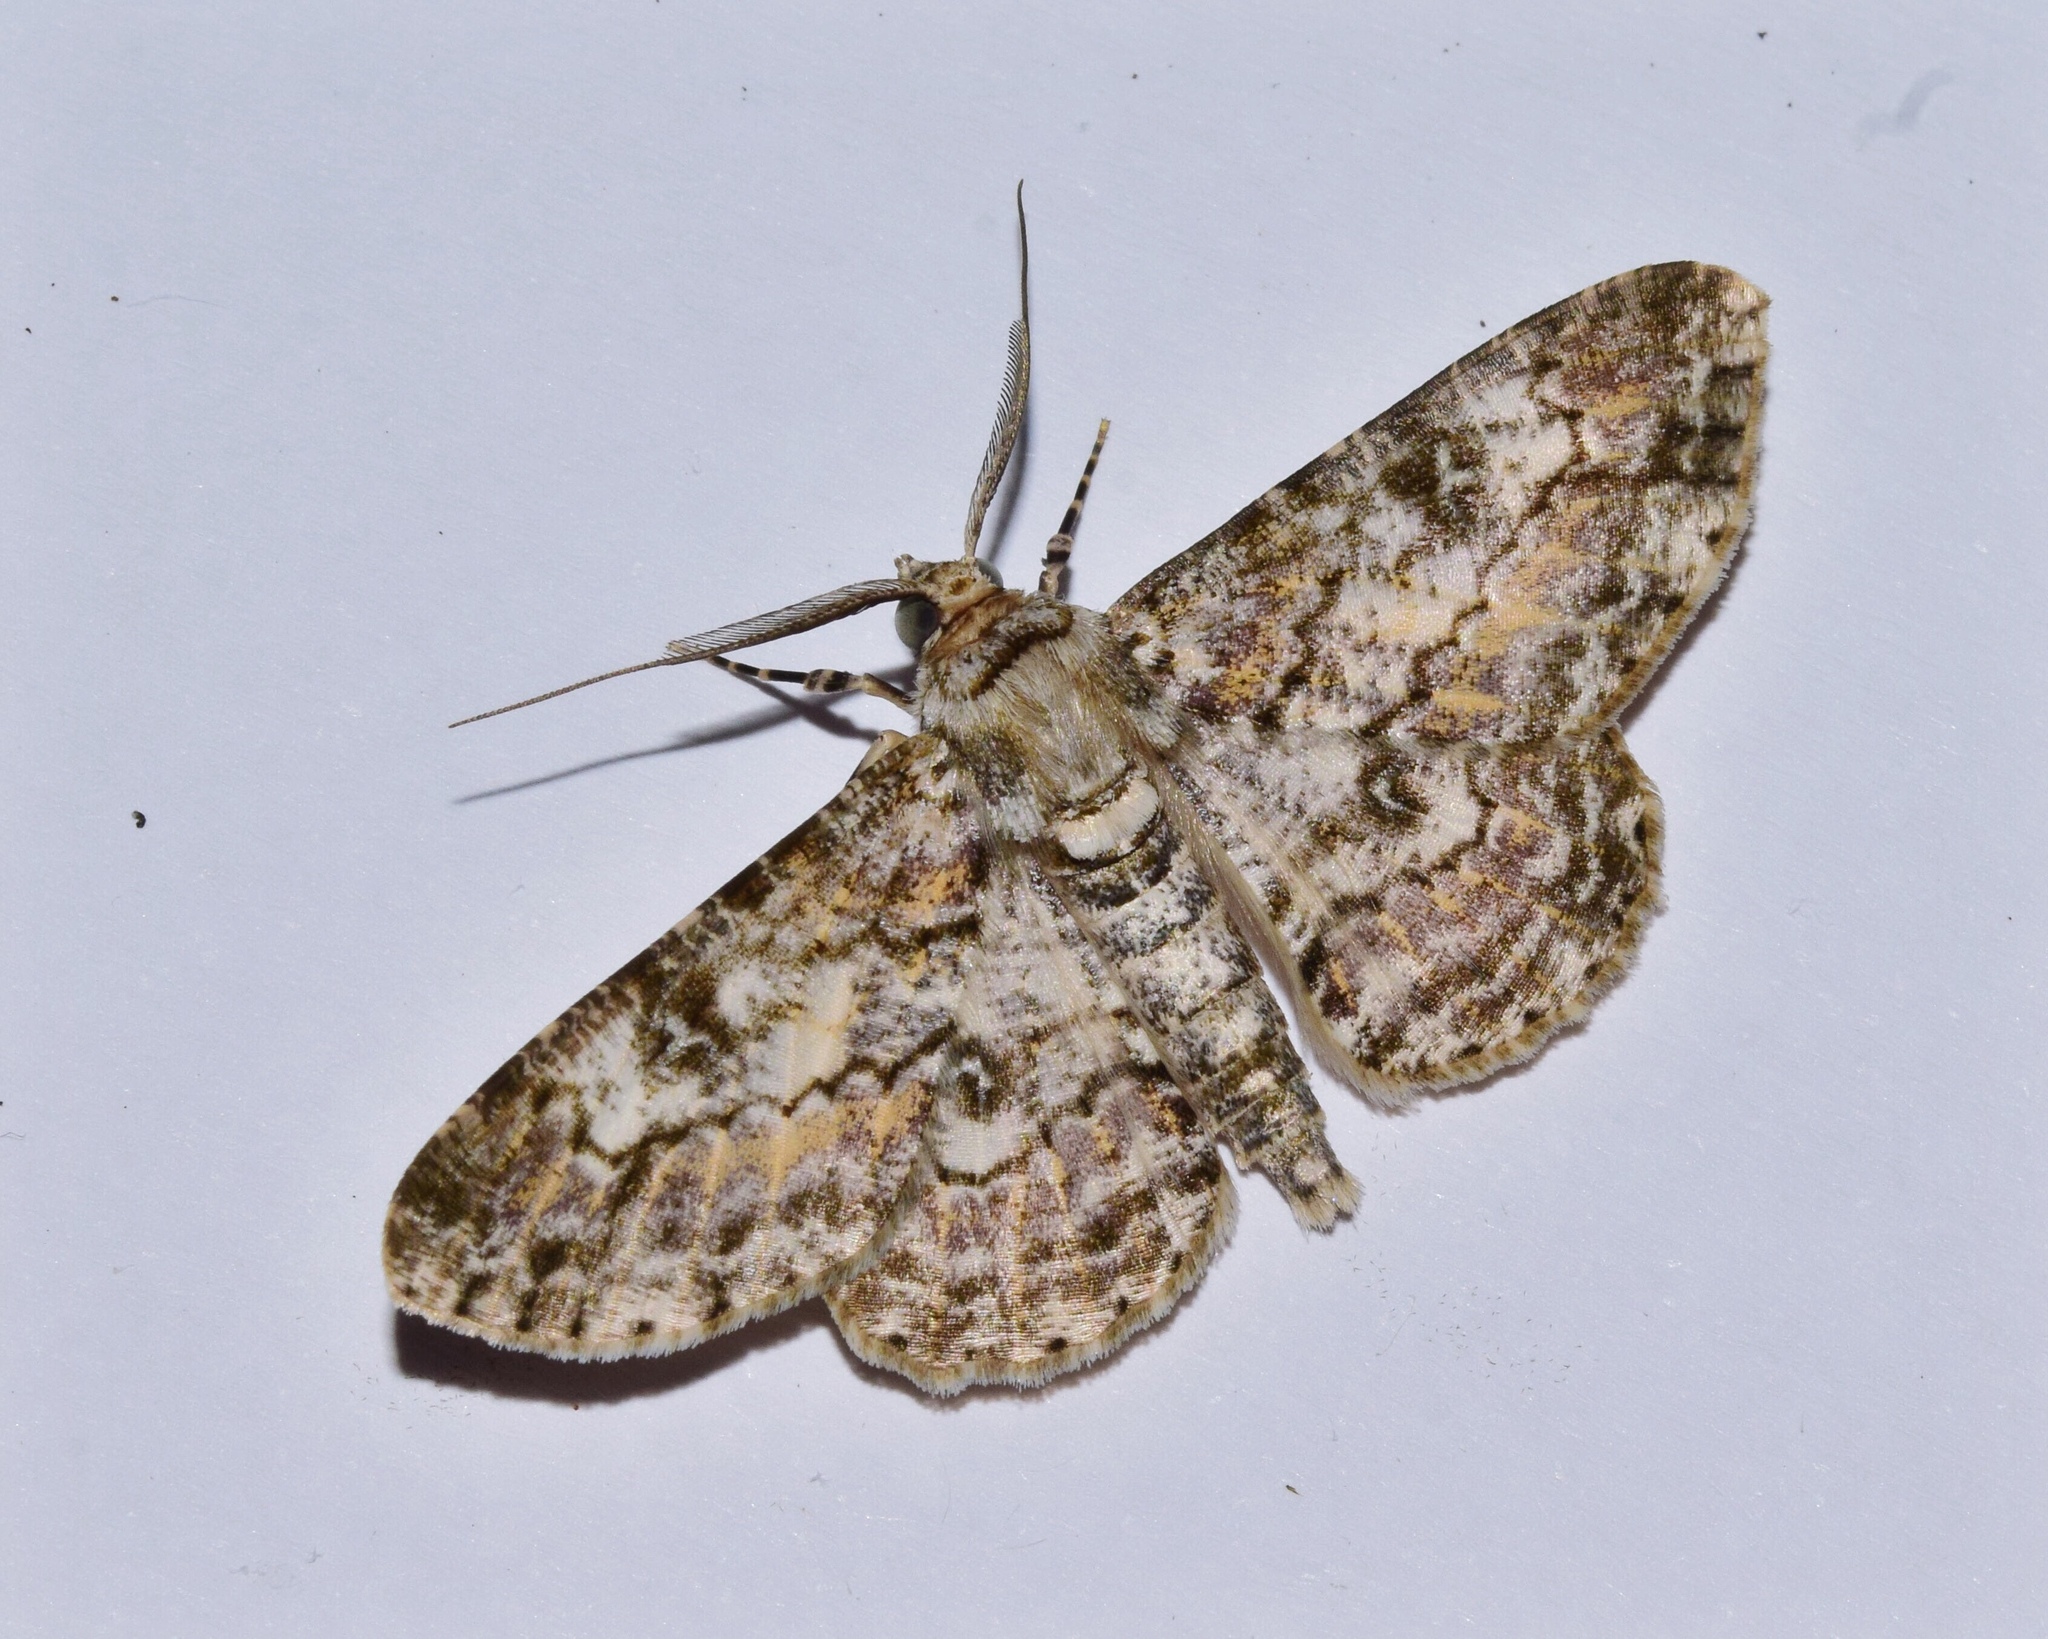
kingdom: Animalia
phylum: Arthropoda
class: Insecta
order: Lepidoptera
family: Geometridae
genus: Cleora
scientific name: Cleora munda
